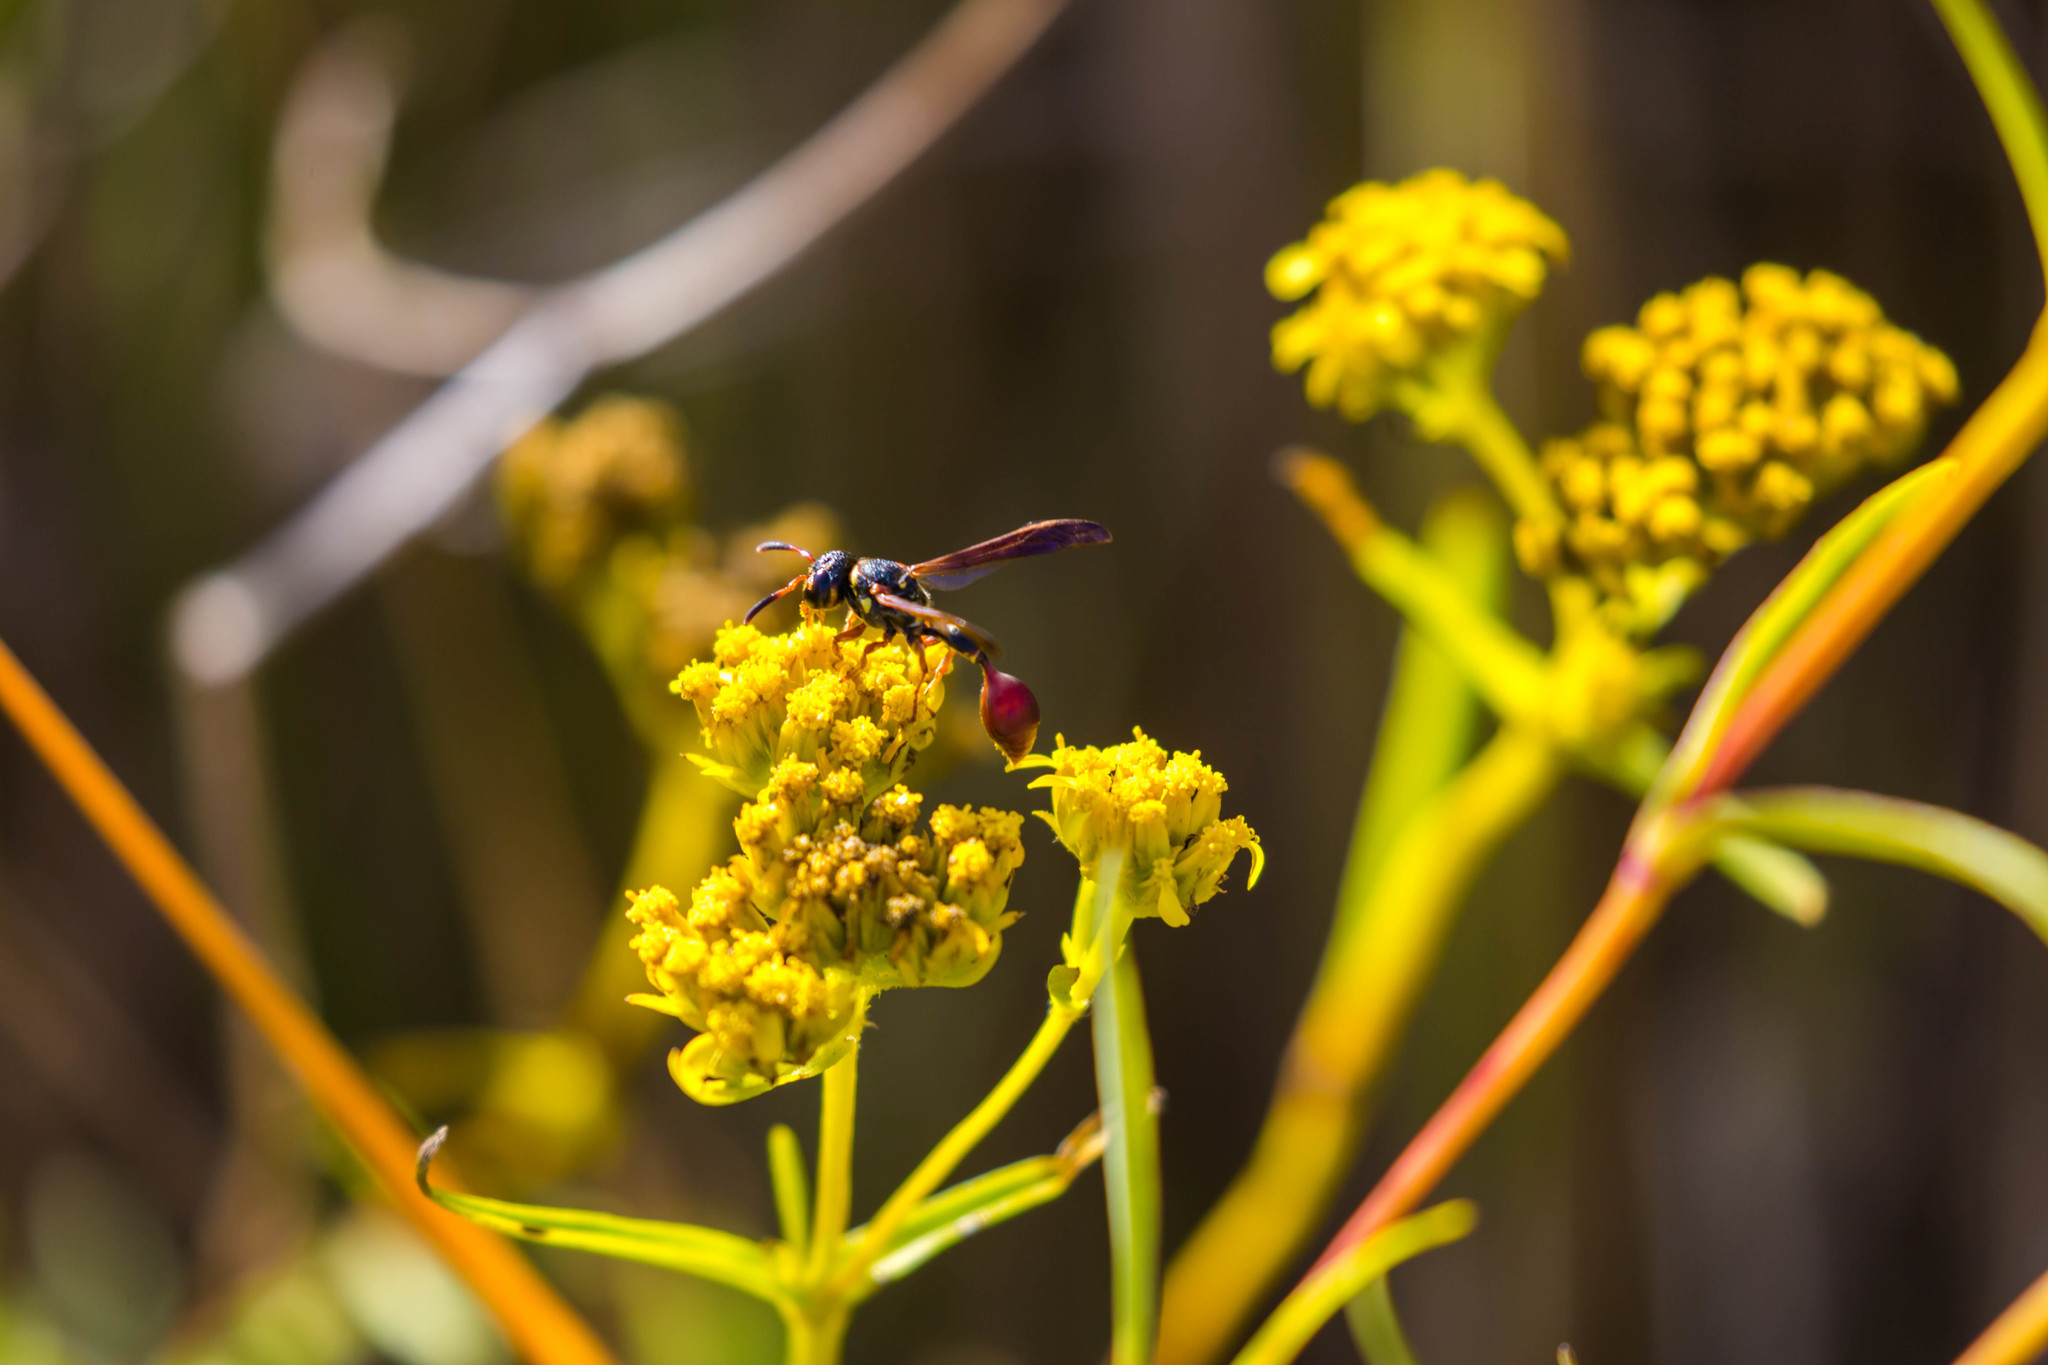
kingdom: Animalia
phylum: Arthropoda
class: Insecta
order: Hymenoptera
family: Eumenidae
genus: Zethus
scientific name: Zethus slossonae
